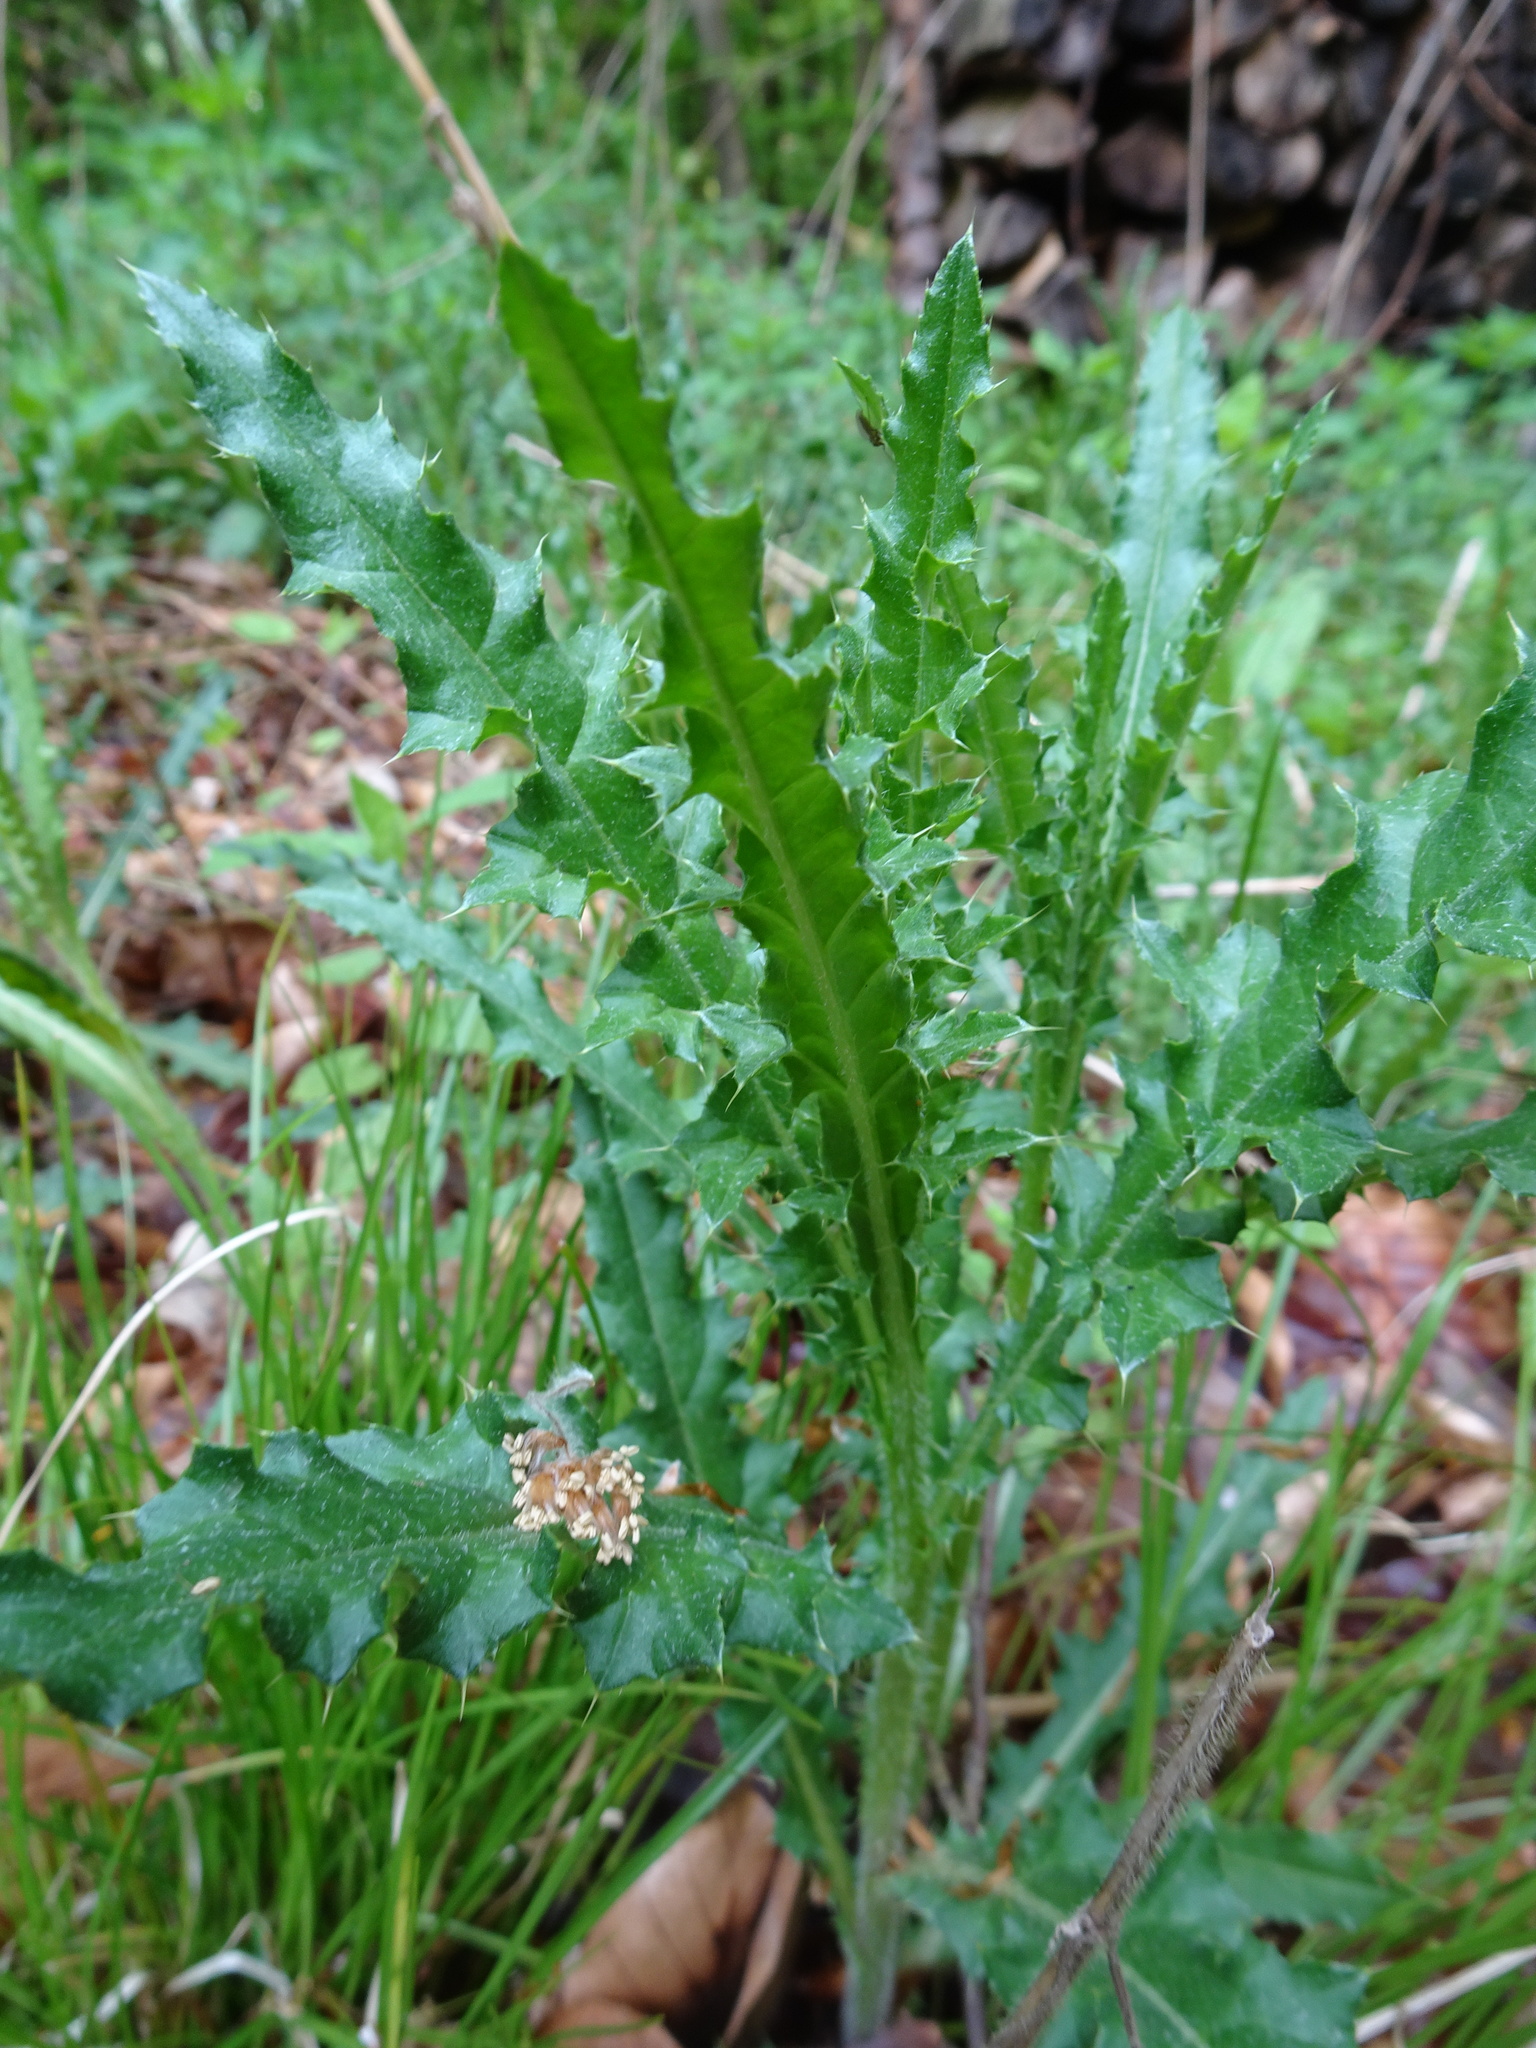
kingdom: Plantae
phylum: Tracheophyta
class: Magnoliopsida
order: Asterales
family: Asteraceae
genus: Cirsium
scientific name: Cirsium arvense
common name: Creeping thistle
